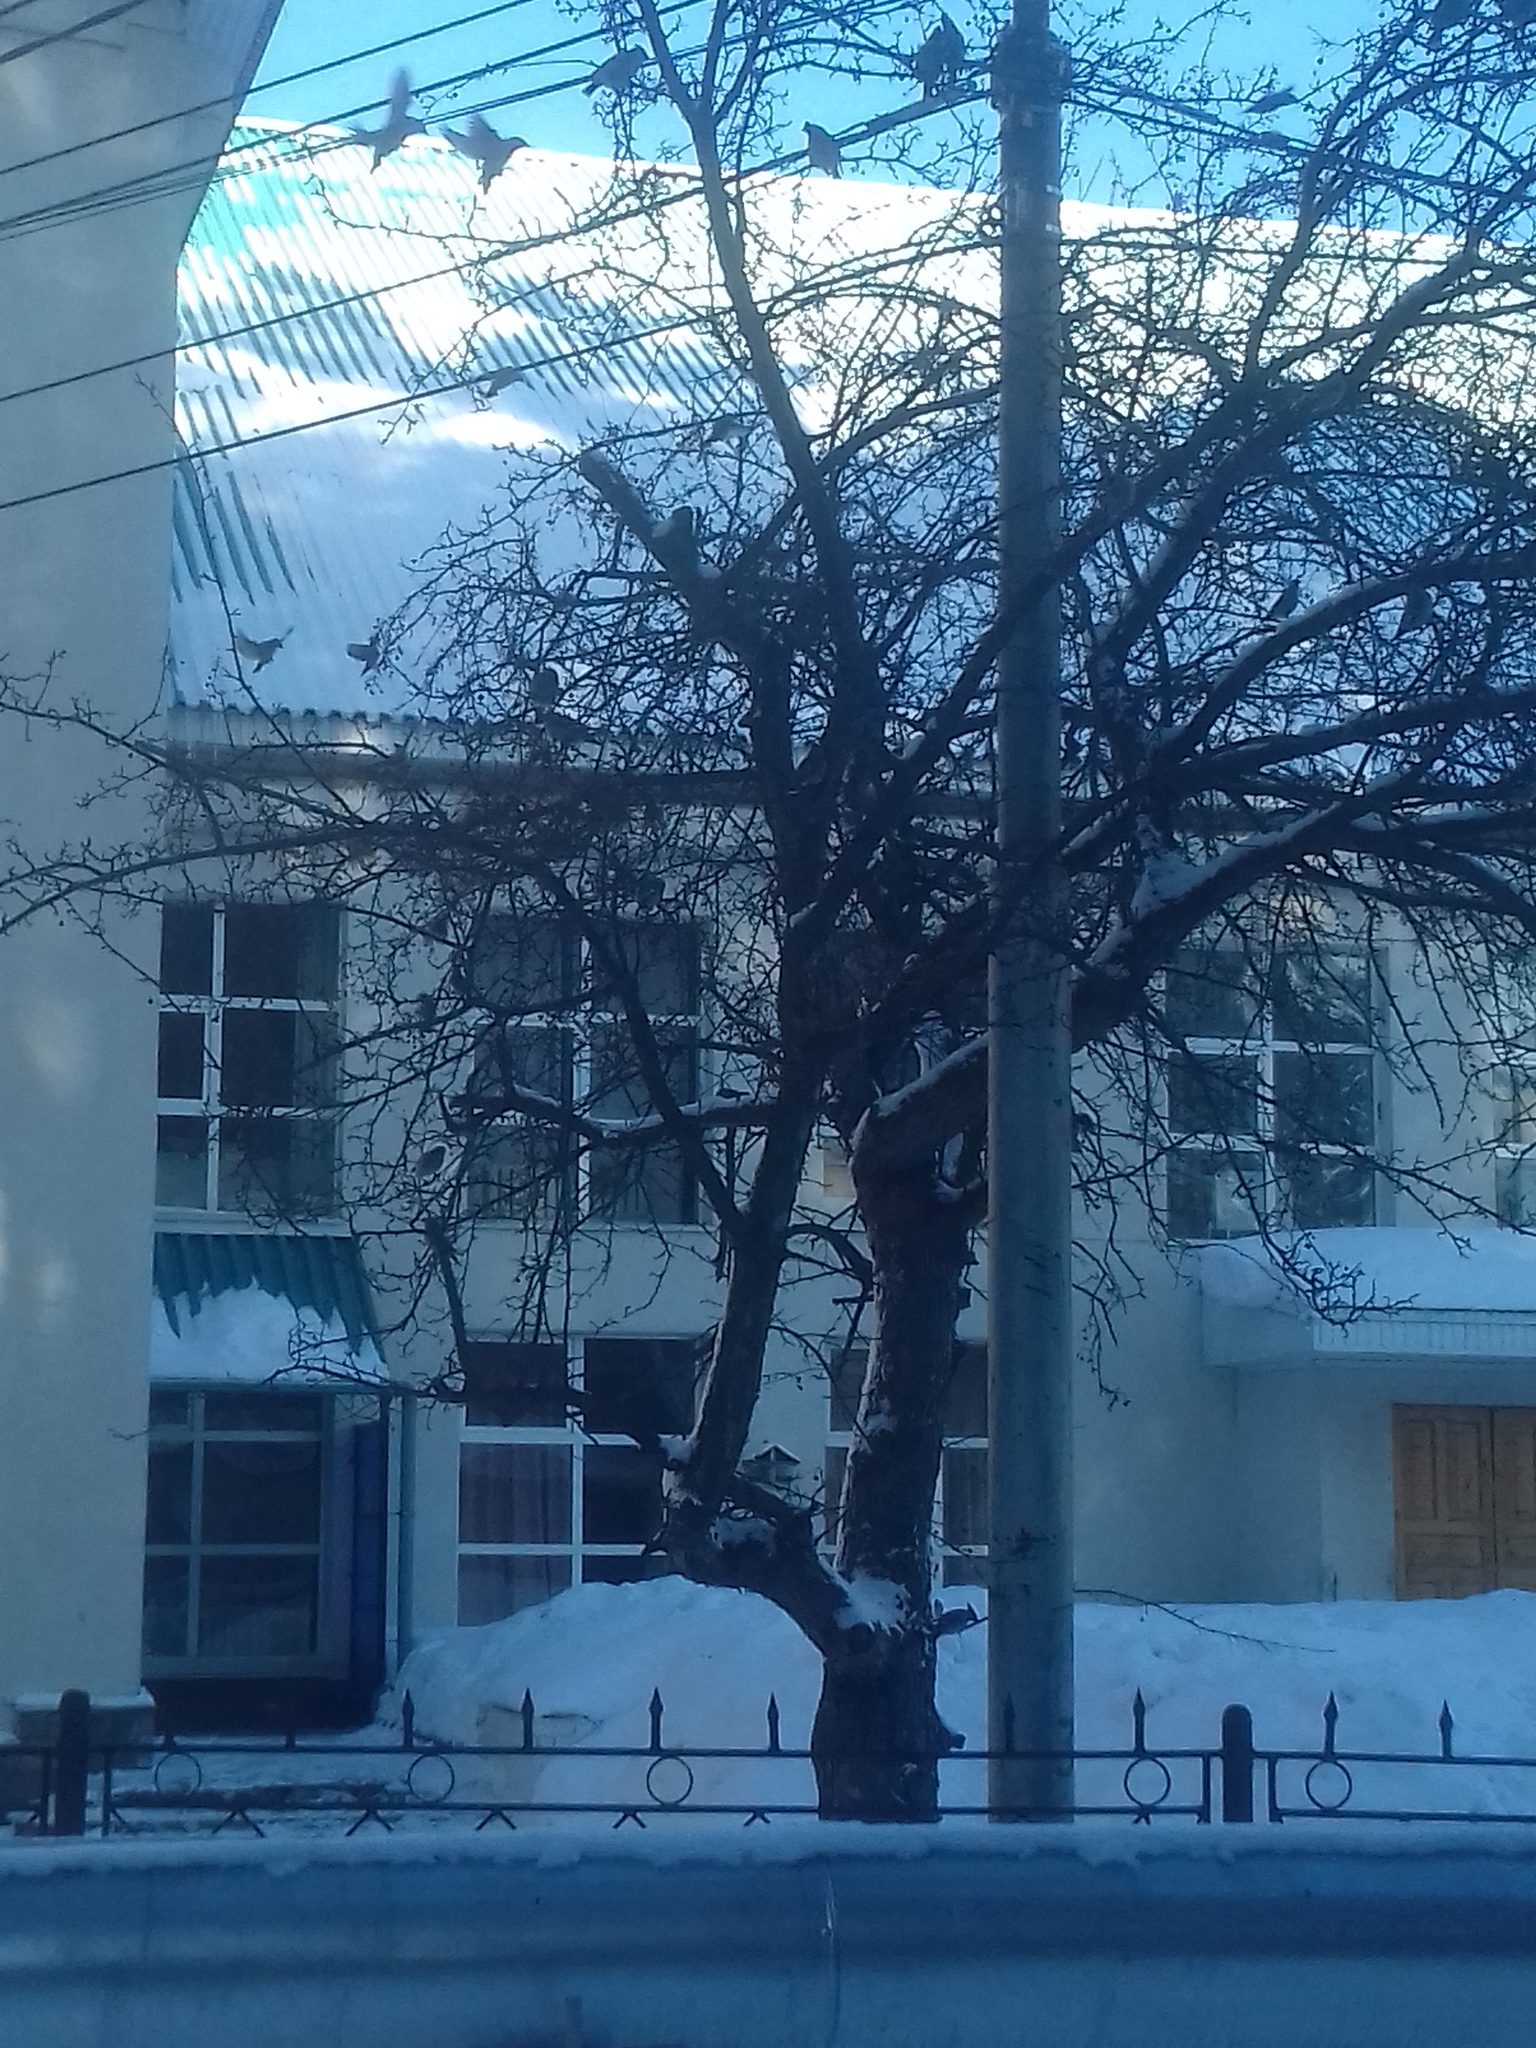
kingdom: Animalia
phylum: Chordata
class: Aves
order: Passeriformes
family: Bombycillidae
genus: Bombycilla
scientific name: Bombycilla garrulus
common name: Bohemian waxwing
